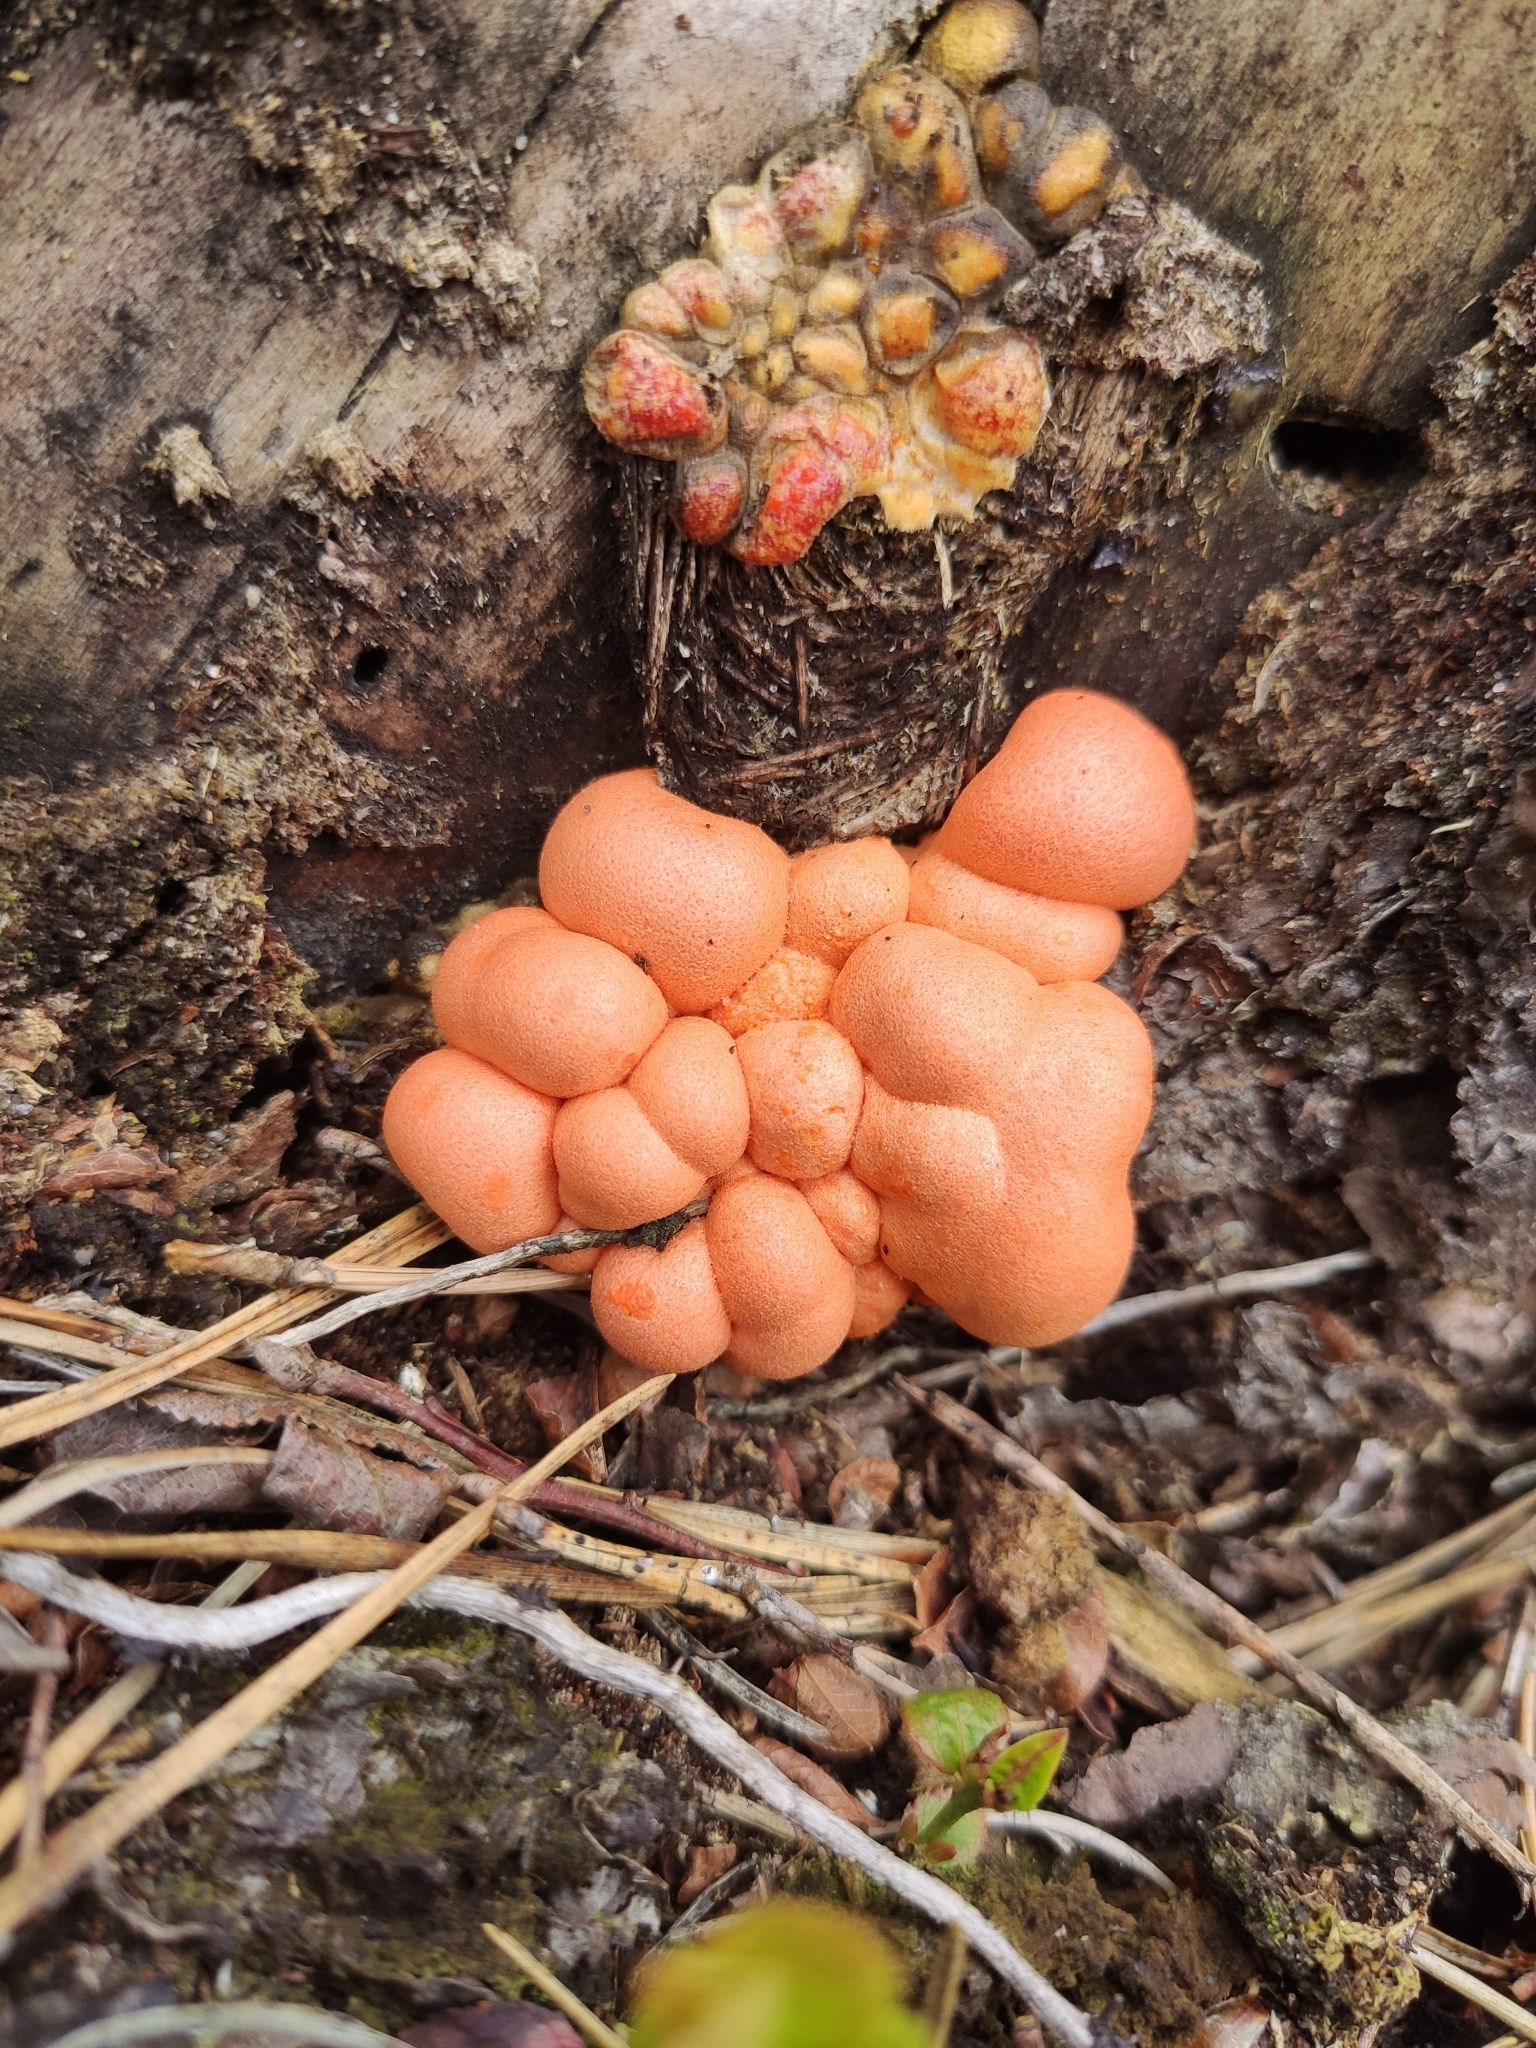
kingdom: Protozoa
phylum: Mycetozoa
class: Myxomycetes
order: Cribrariales
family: Tubiferaceae
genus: Lycogala
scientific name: Lycogala epidendrum
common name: Wolf's milk
